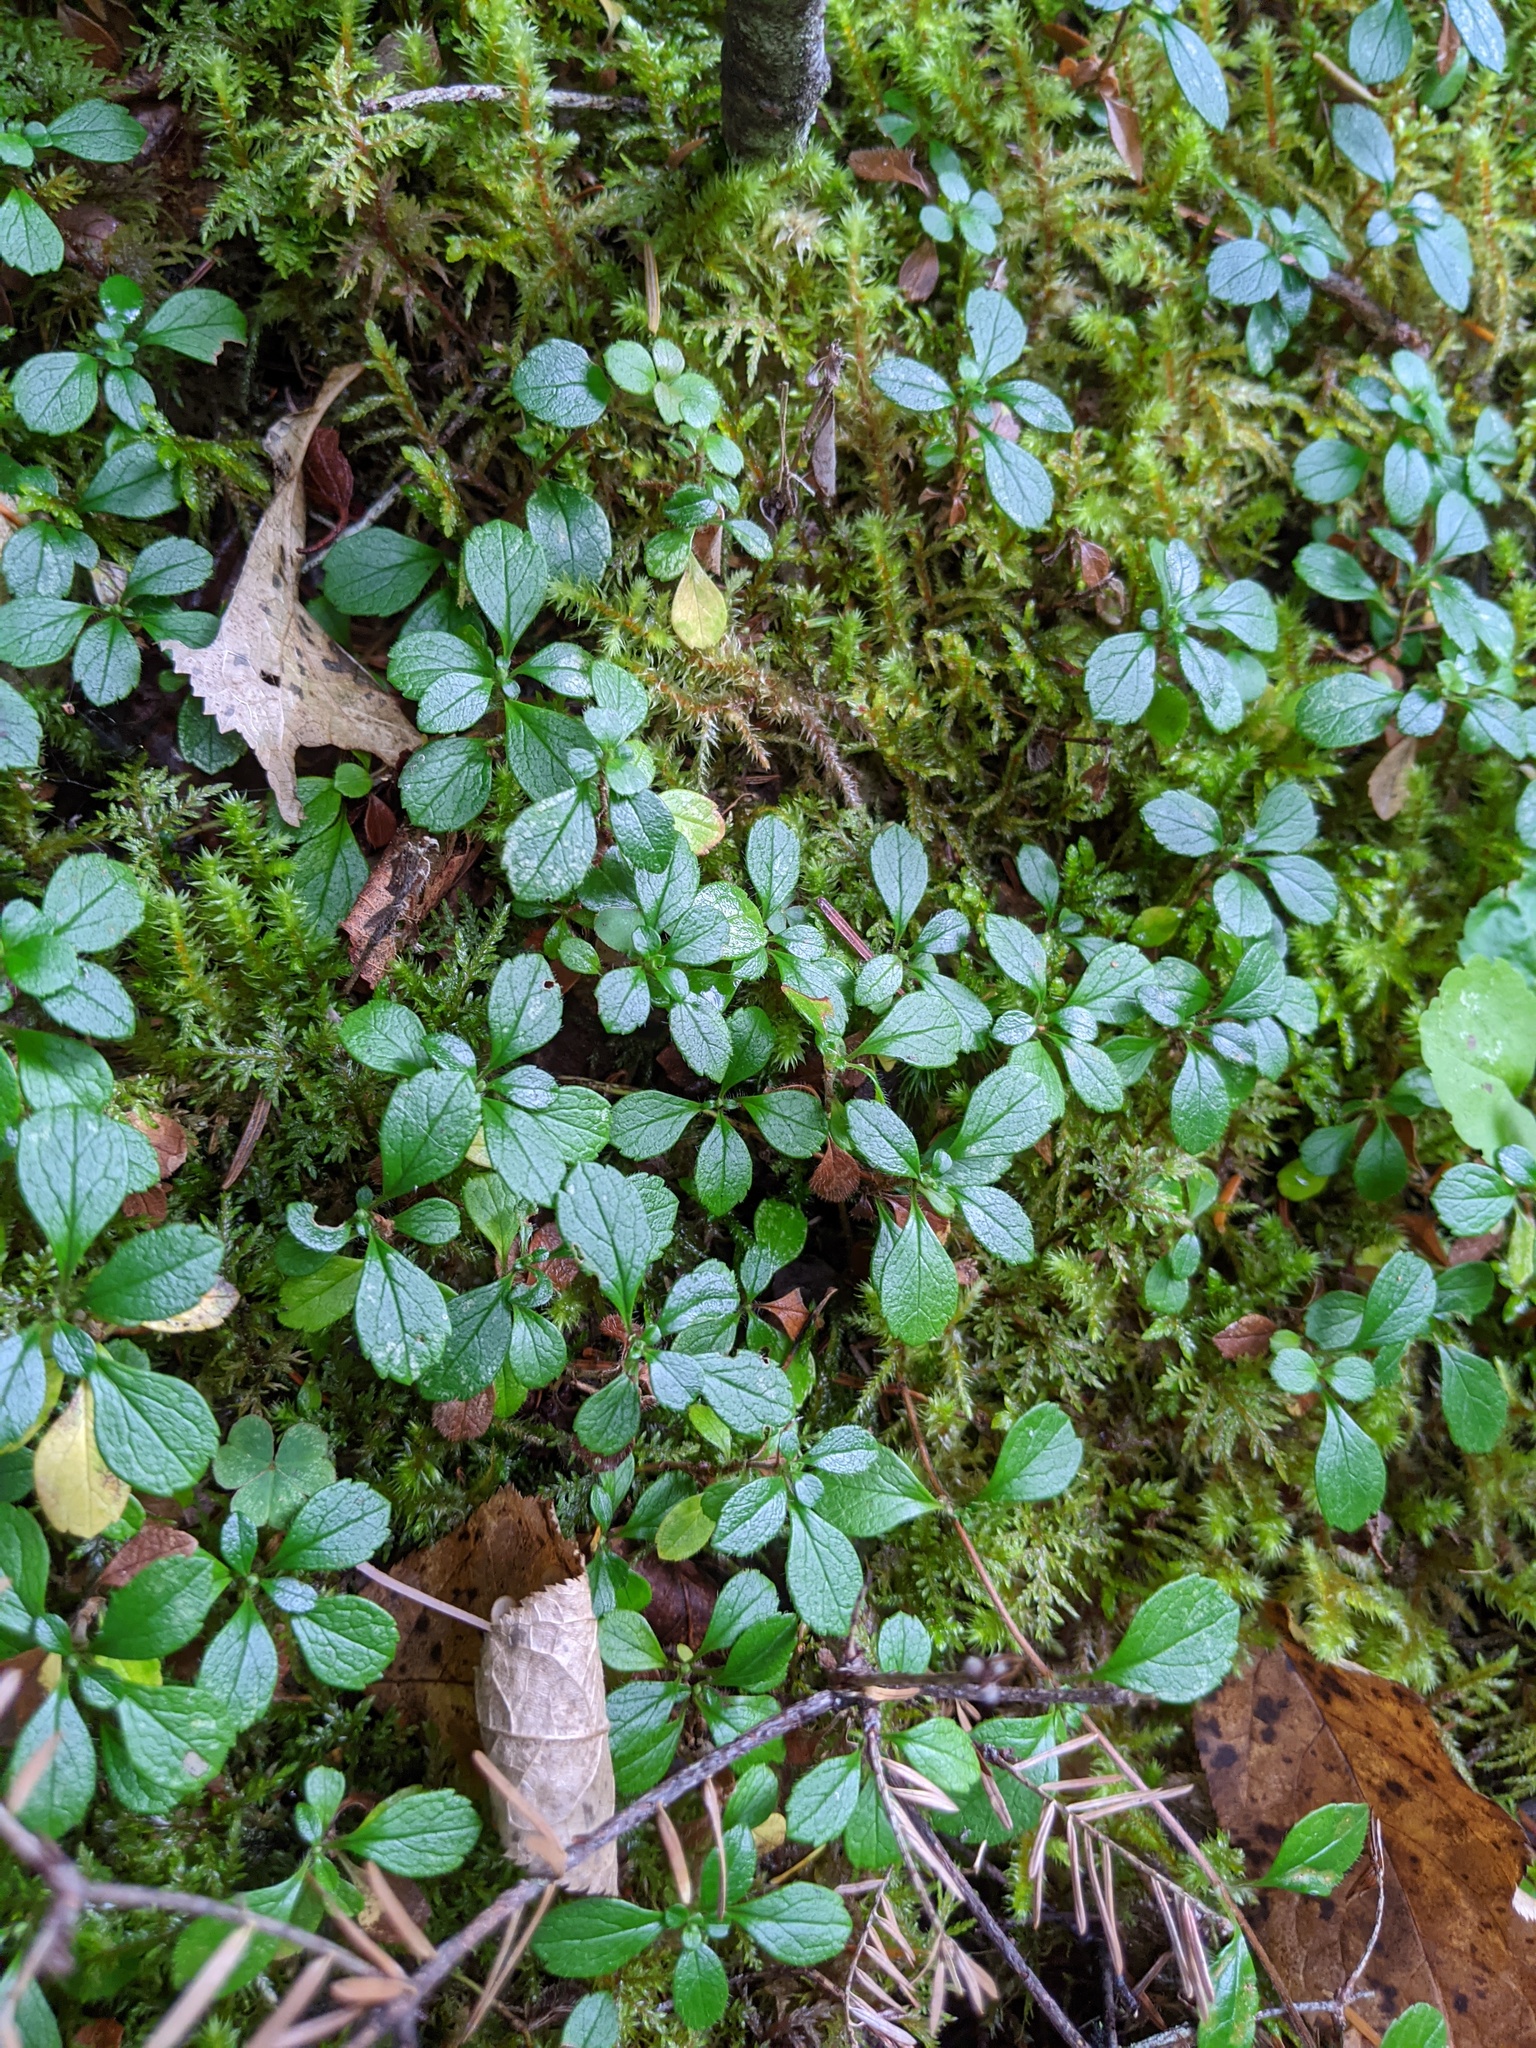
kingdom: Plantae
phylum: Tracheophyta
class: Magnoliopsida
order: Dipsacales
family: Caprifoliaceae
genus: Linnaea
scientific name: Linnaea borealis
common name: Twinflower
